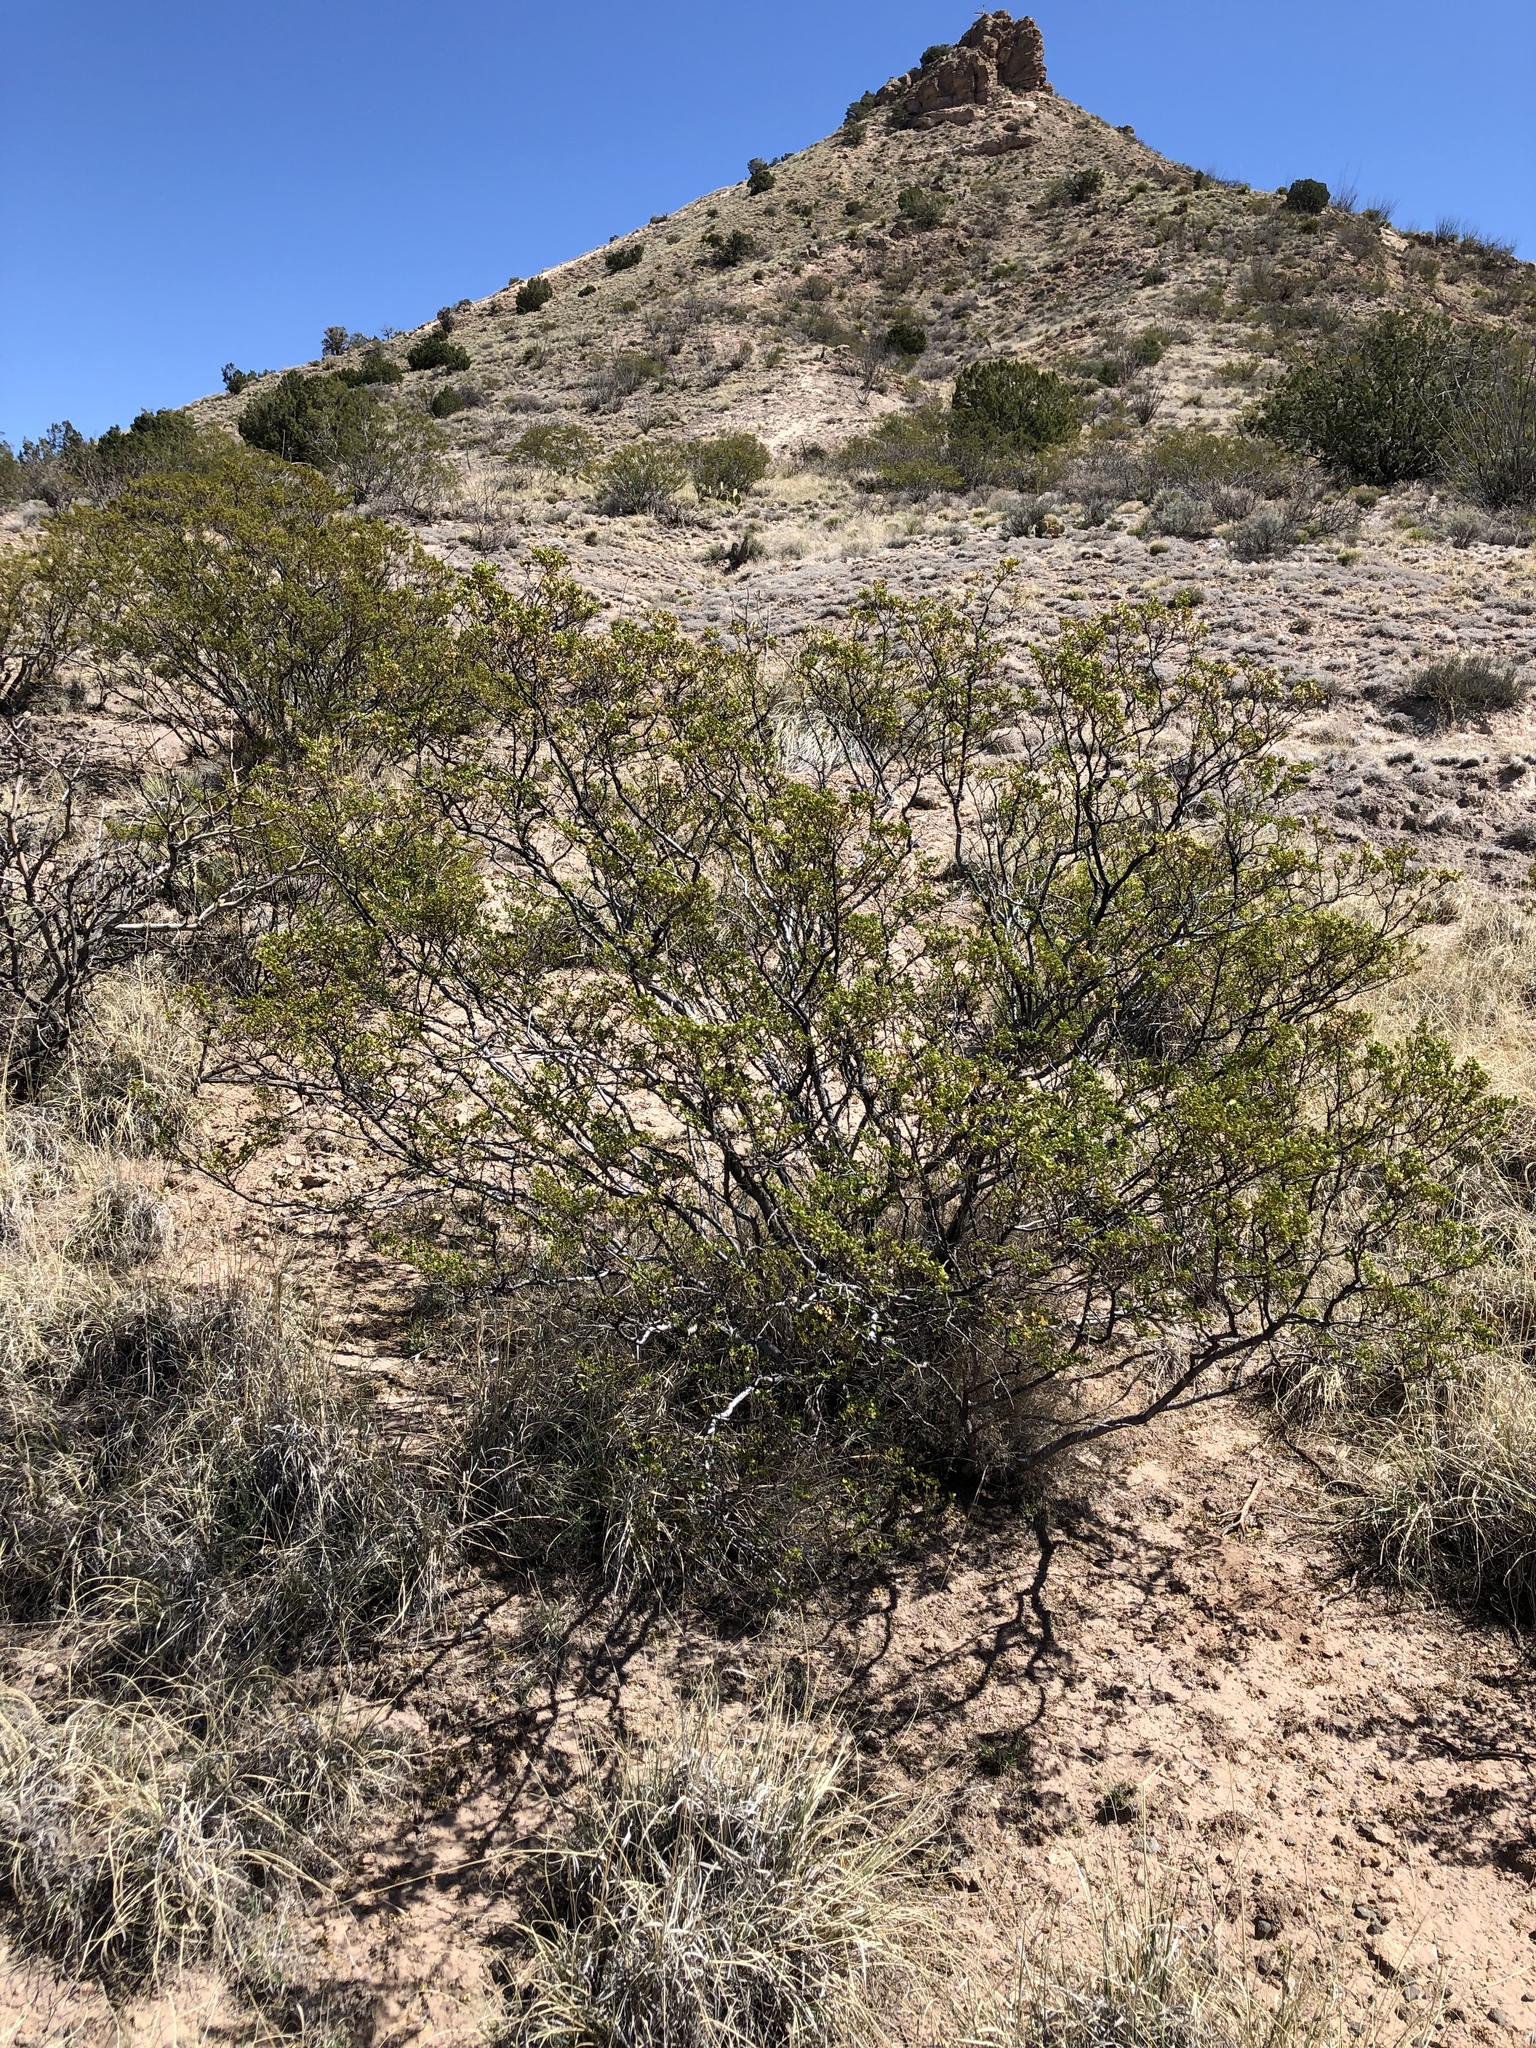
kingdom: Plantae
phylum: Tracheophyta
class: Magnoliopsida
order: Zygophyllales
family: Zygophyllaceae
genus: Larrea
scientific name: Larrea tridentata
